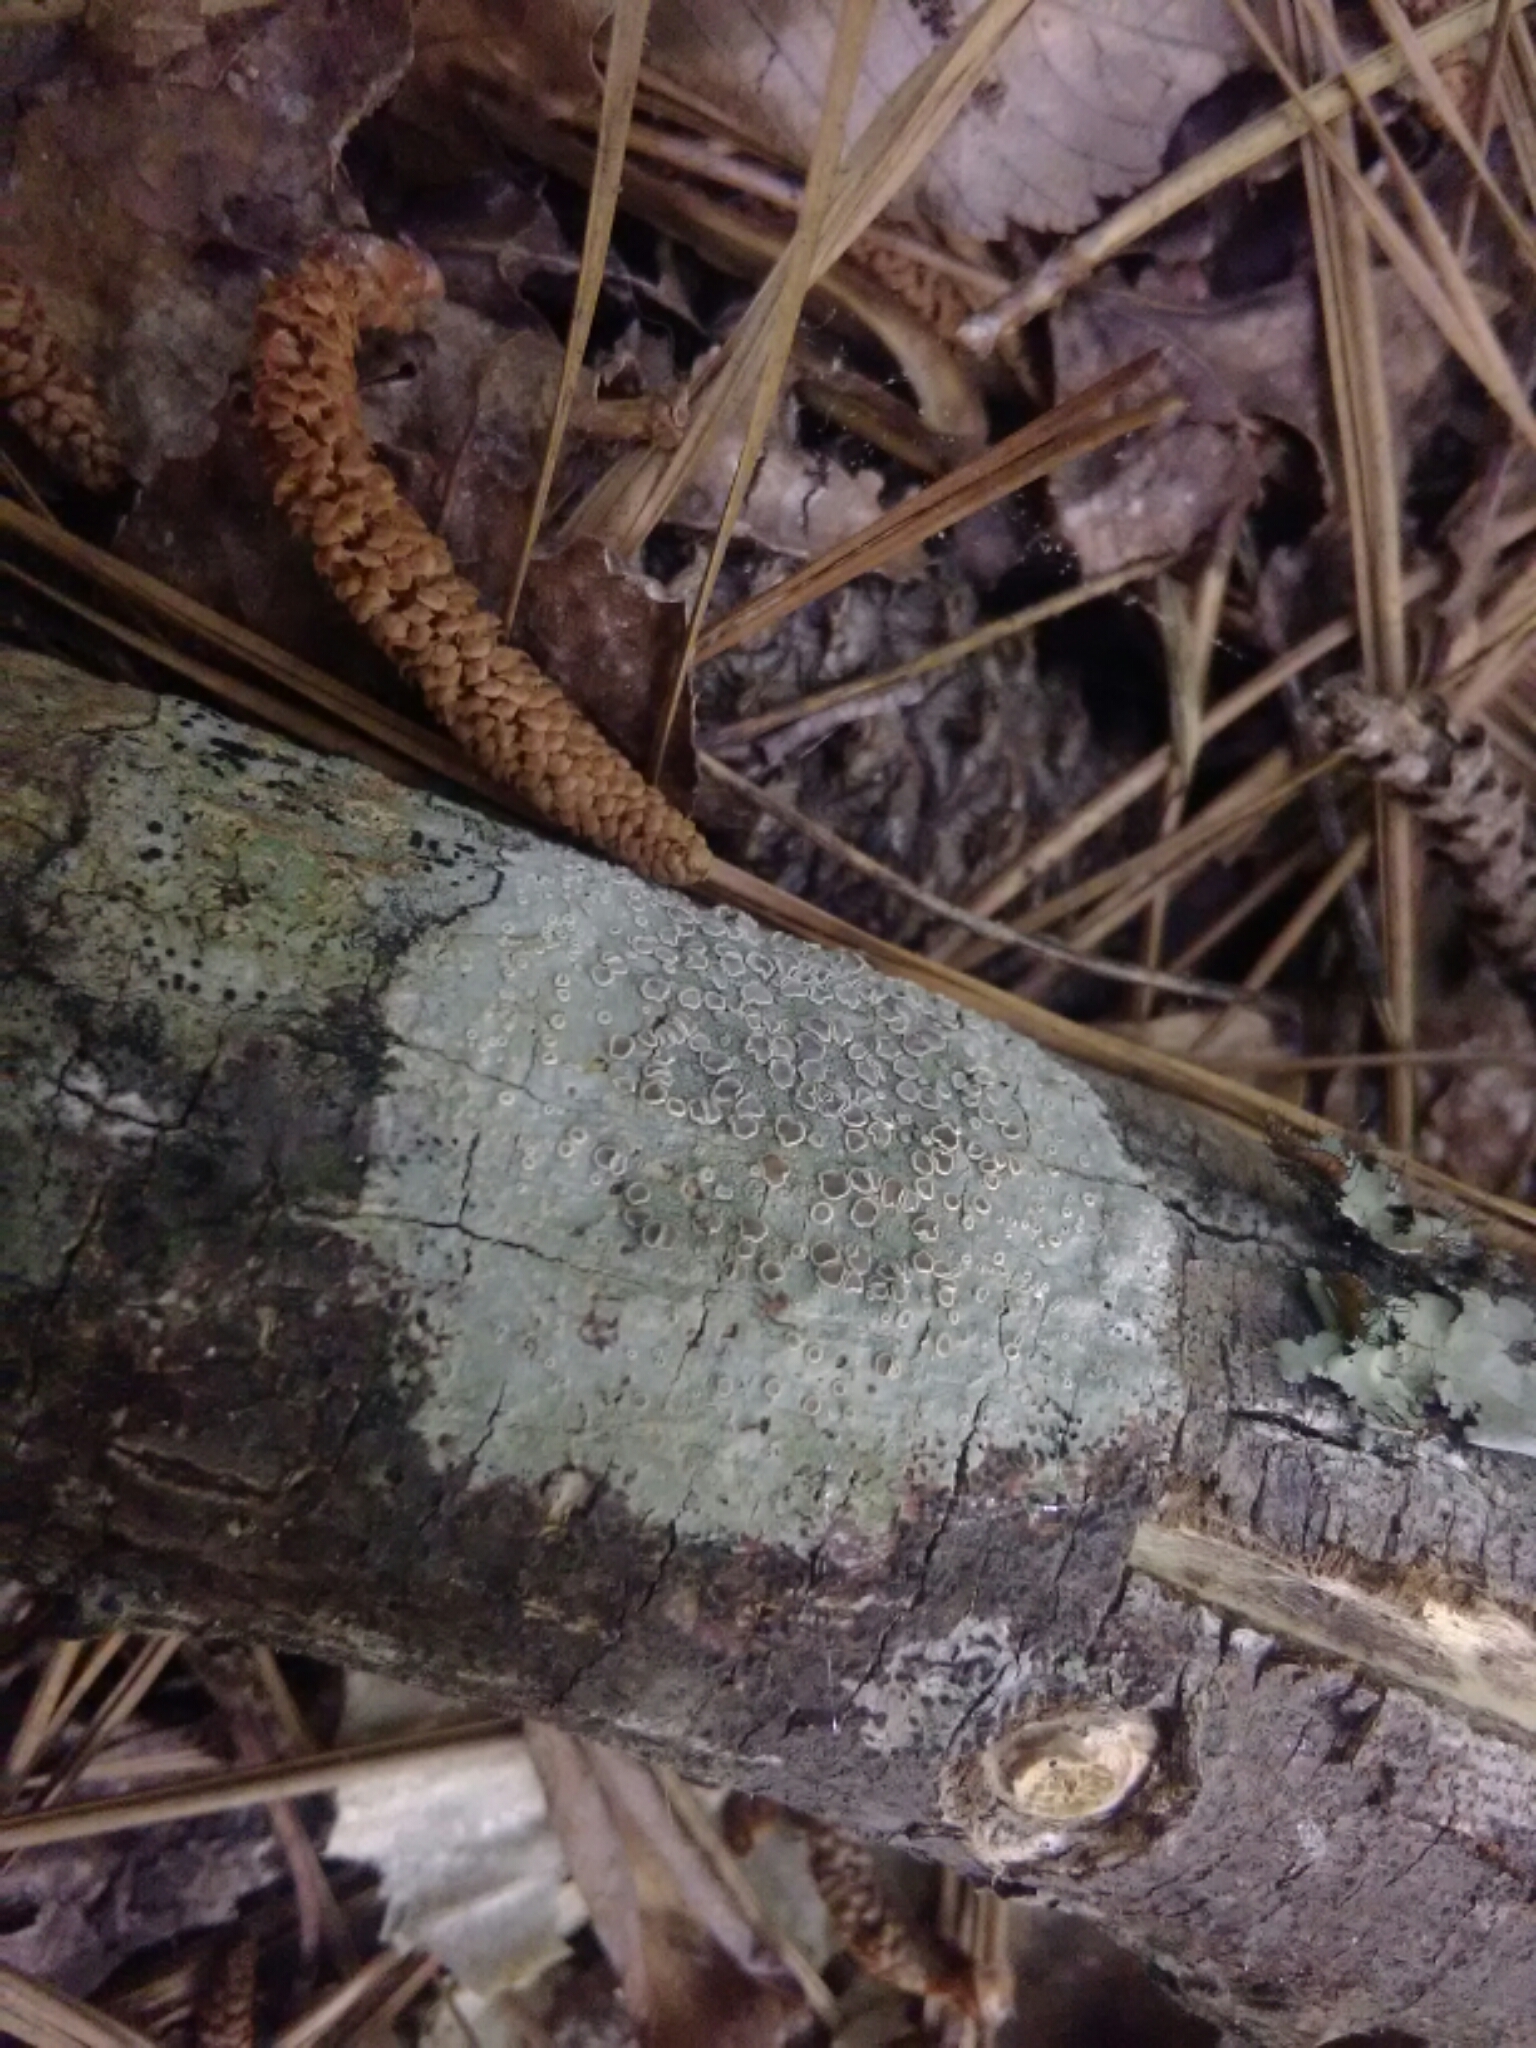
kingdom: Fungi
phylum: Ascomycota
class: Lecanoromycetes
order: Pertusariales
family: Ochrolechiaceae
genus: Ochrolechia
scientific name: Ochrolechia pseudopallescens
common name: Pallid saucer lichen
